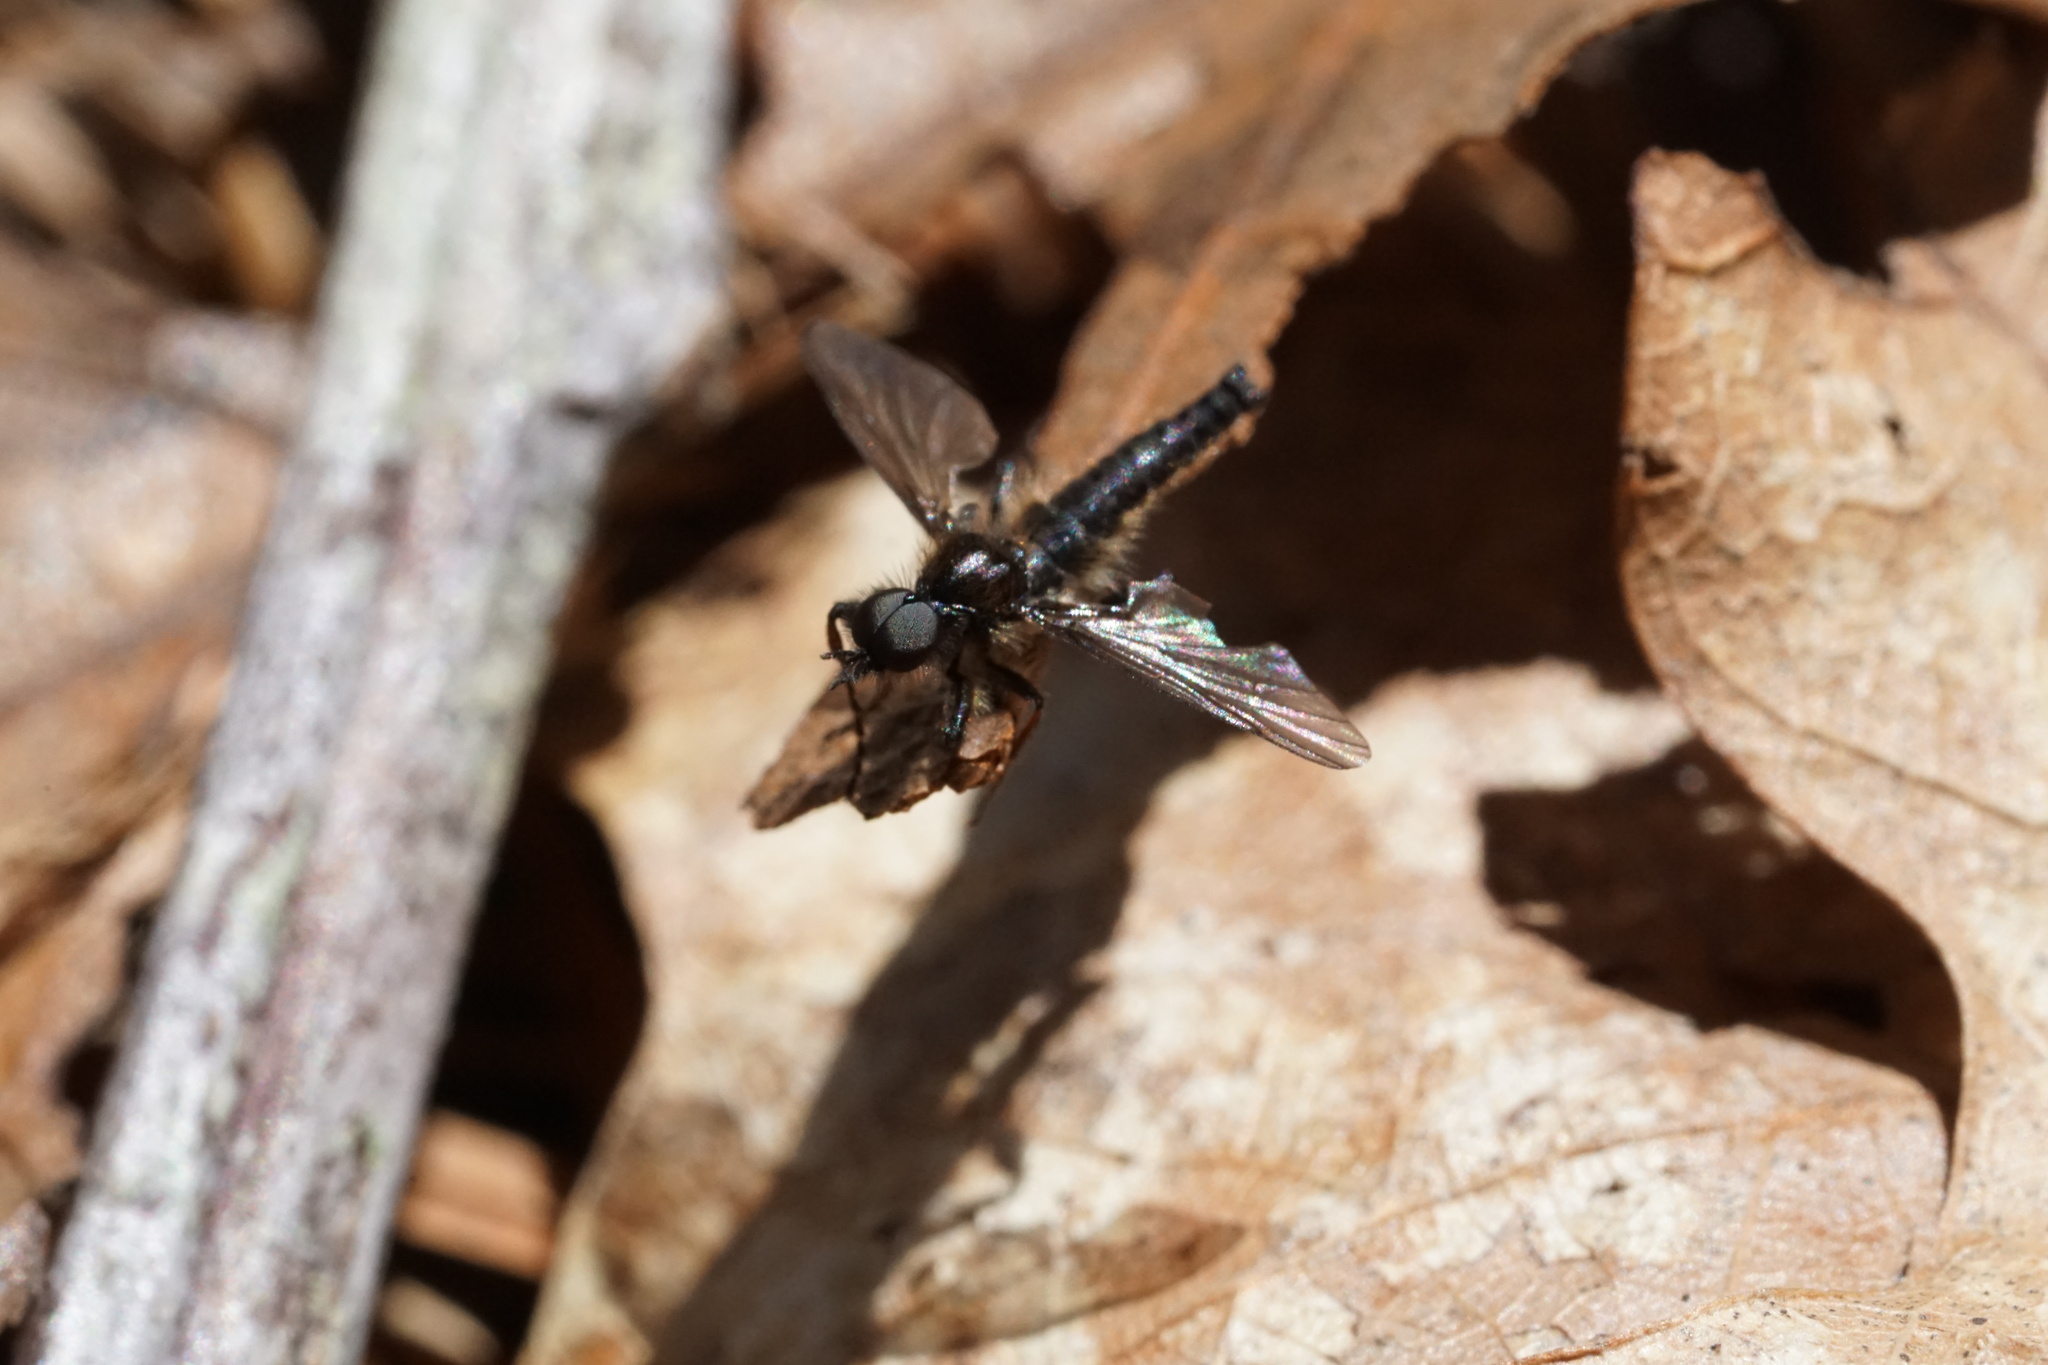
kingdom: Animalia
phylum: Arthropoda
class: Insecta
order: Diptera
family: Bibionidae
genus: Bibio
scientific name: Bibio lanigerus
